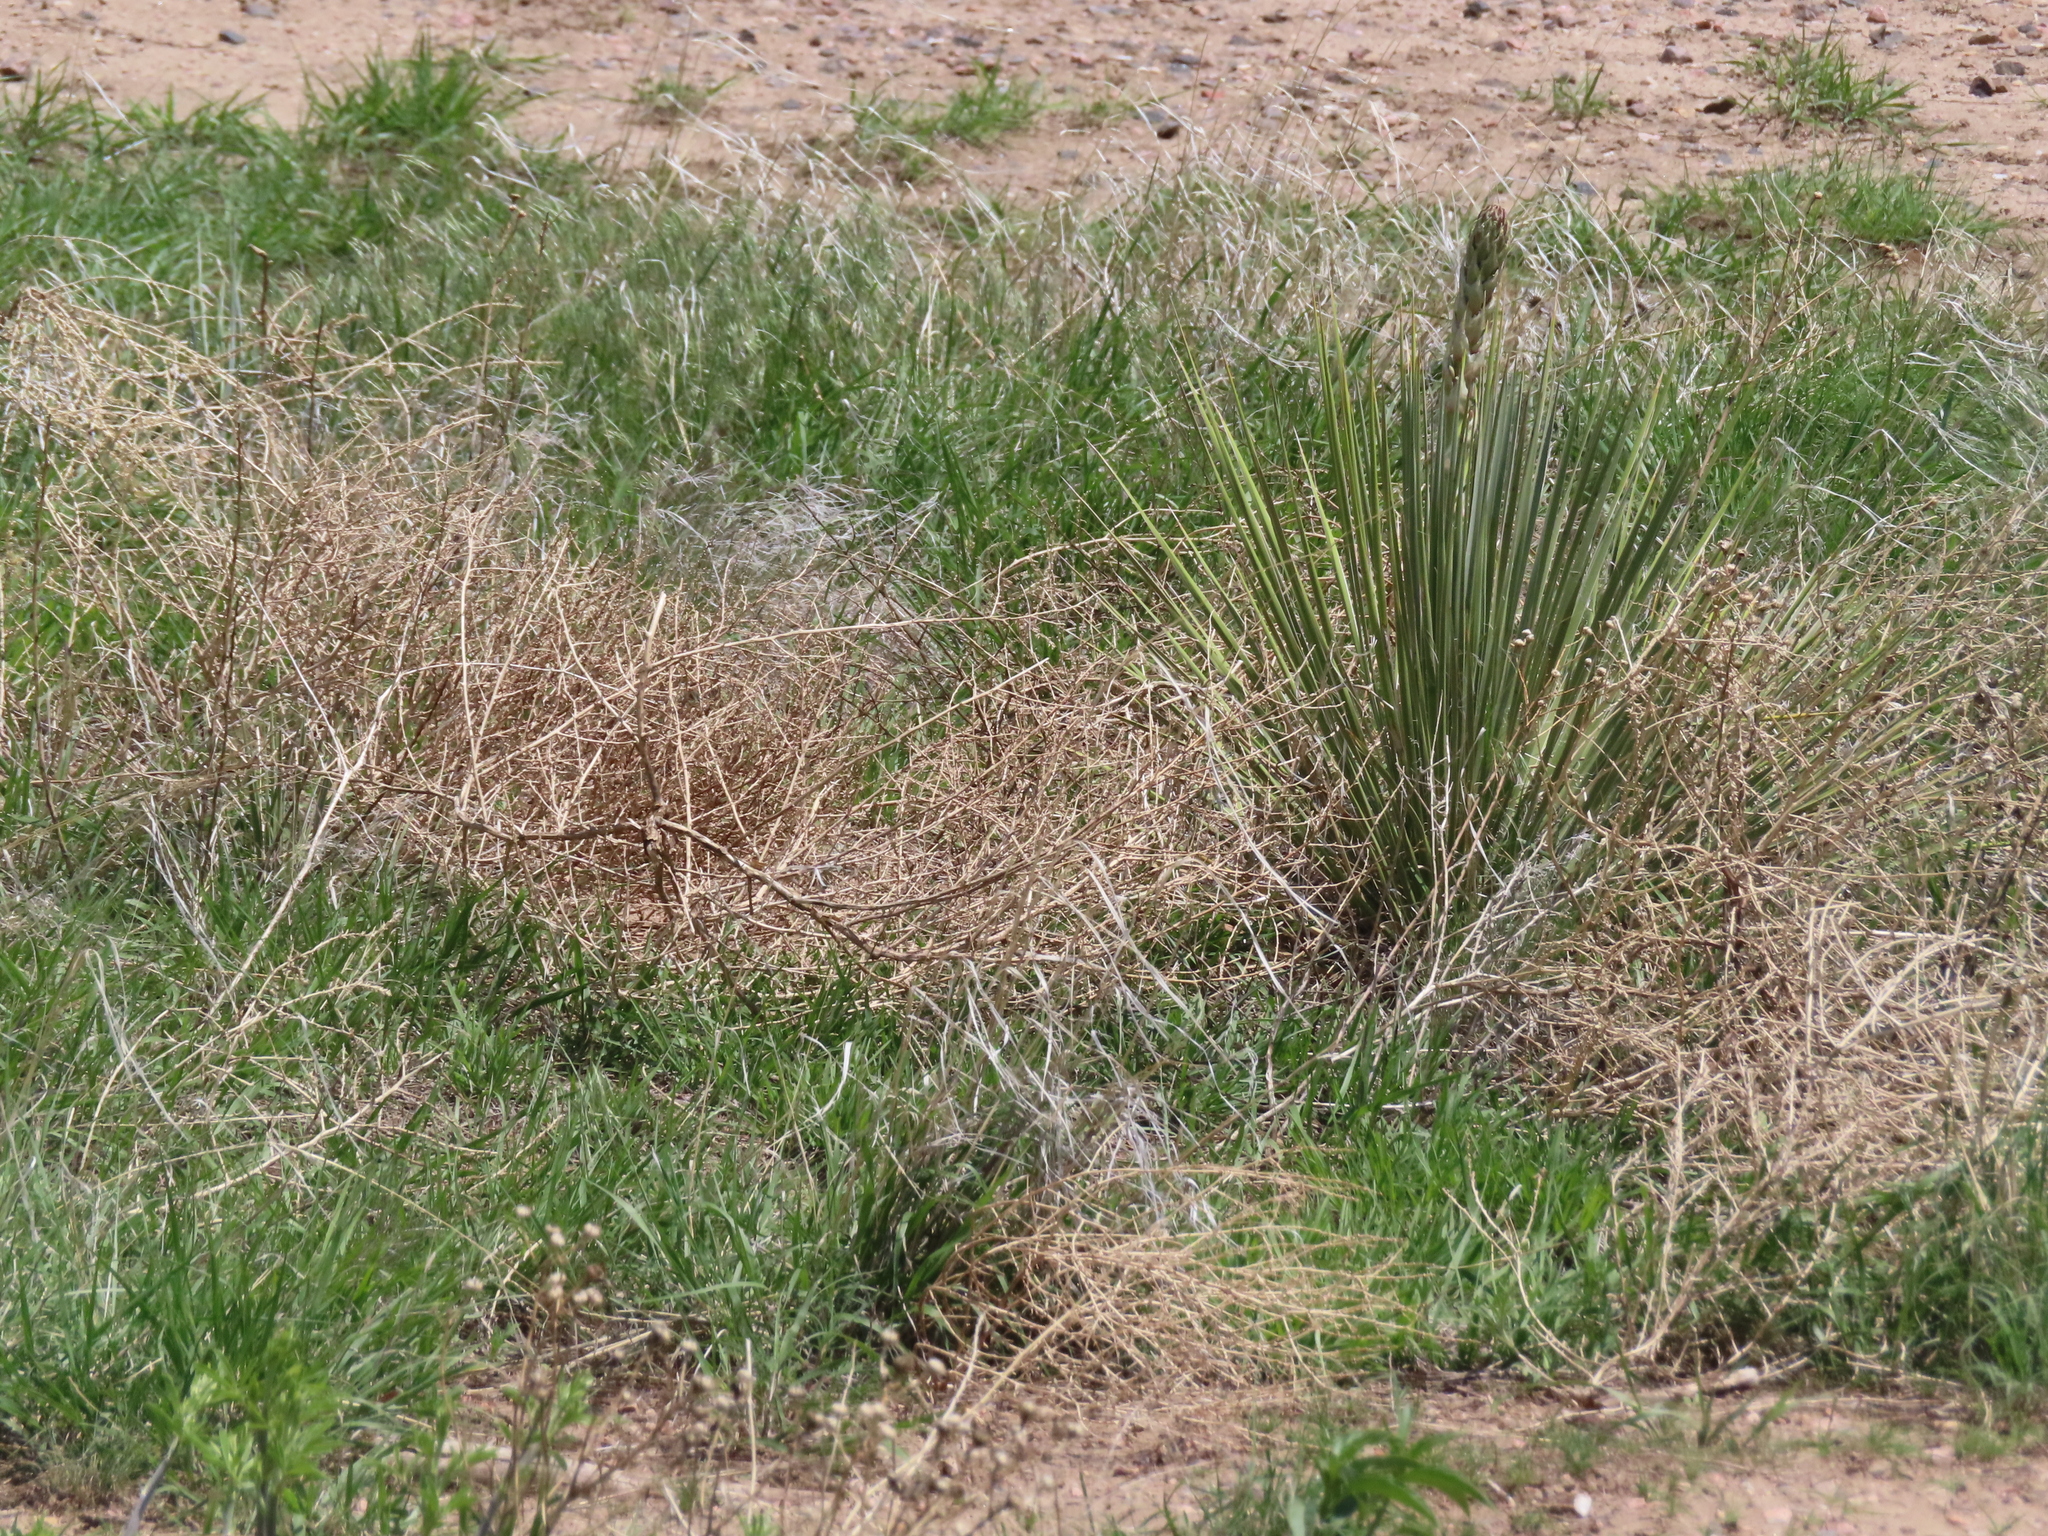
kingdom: Plantae
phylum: Tracheophyta
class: Liliopsida
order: Asparagales
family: Asparagaceae
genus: Yucca
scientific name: Yucca glauca
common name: Great plains yucca
